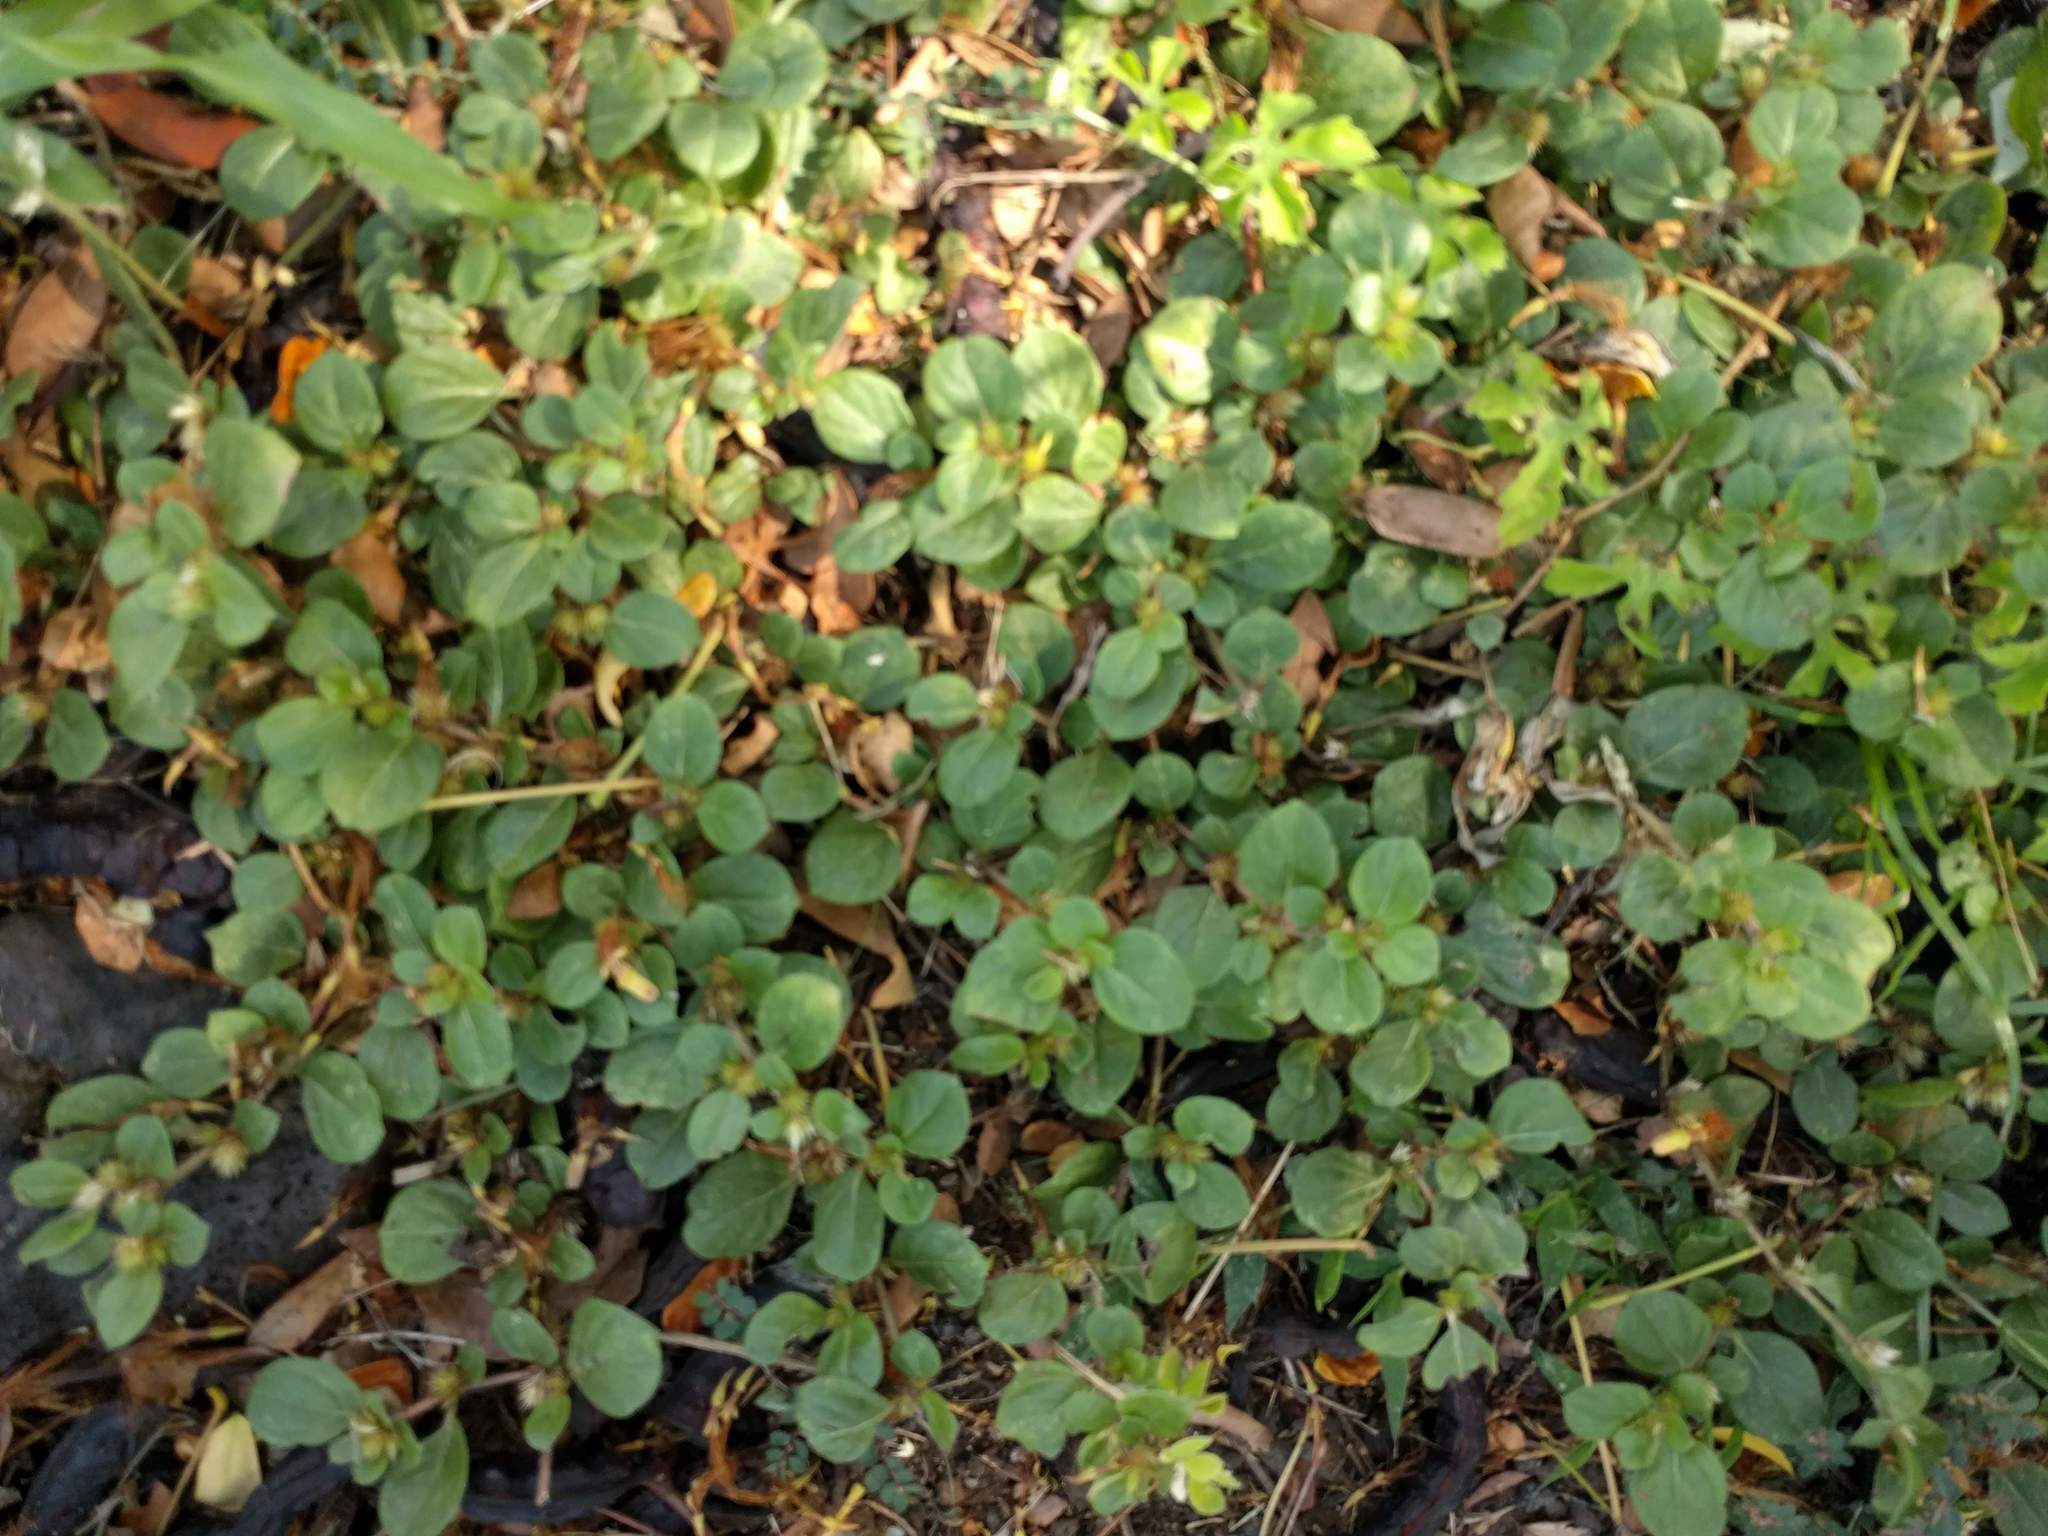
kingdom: Plantae
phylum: Tracheophyta
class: Magnoliopsida
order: Caryophyllales
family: Amaranthaceae
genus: Alternanthera
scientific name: Alternanthera pungens
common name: Khakiweed
